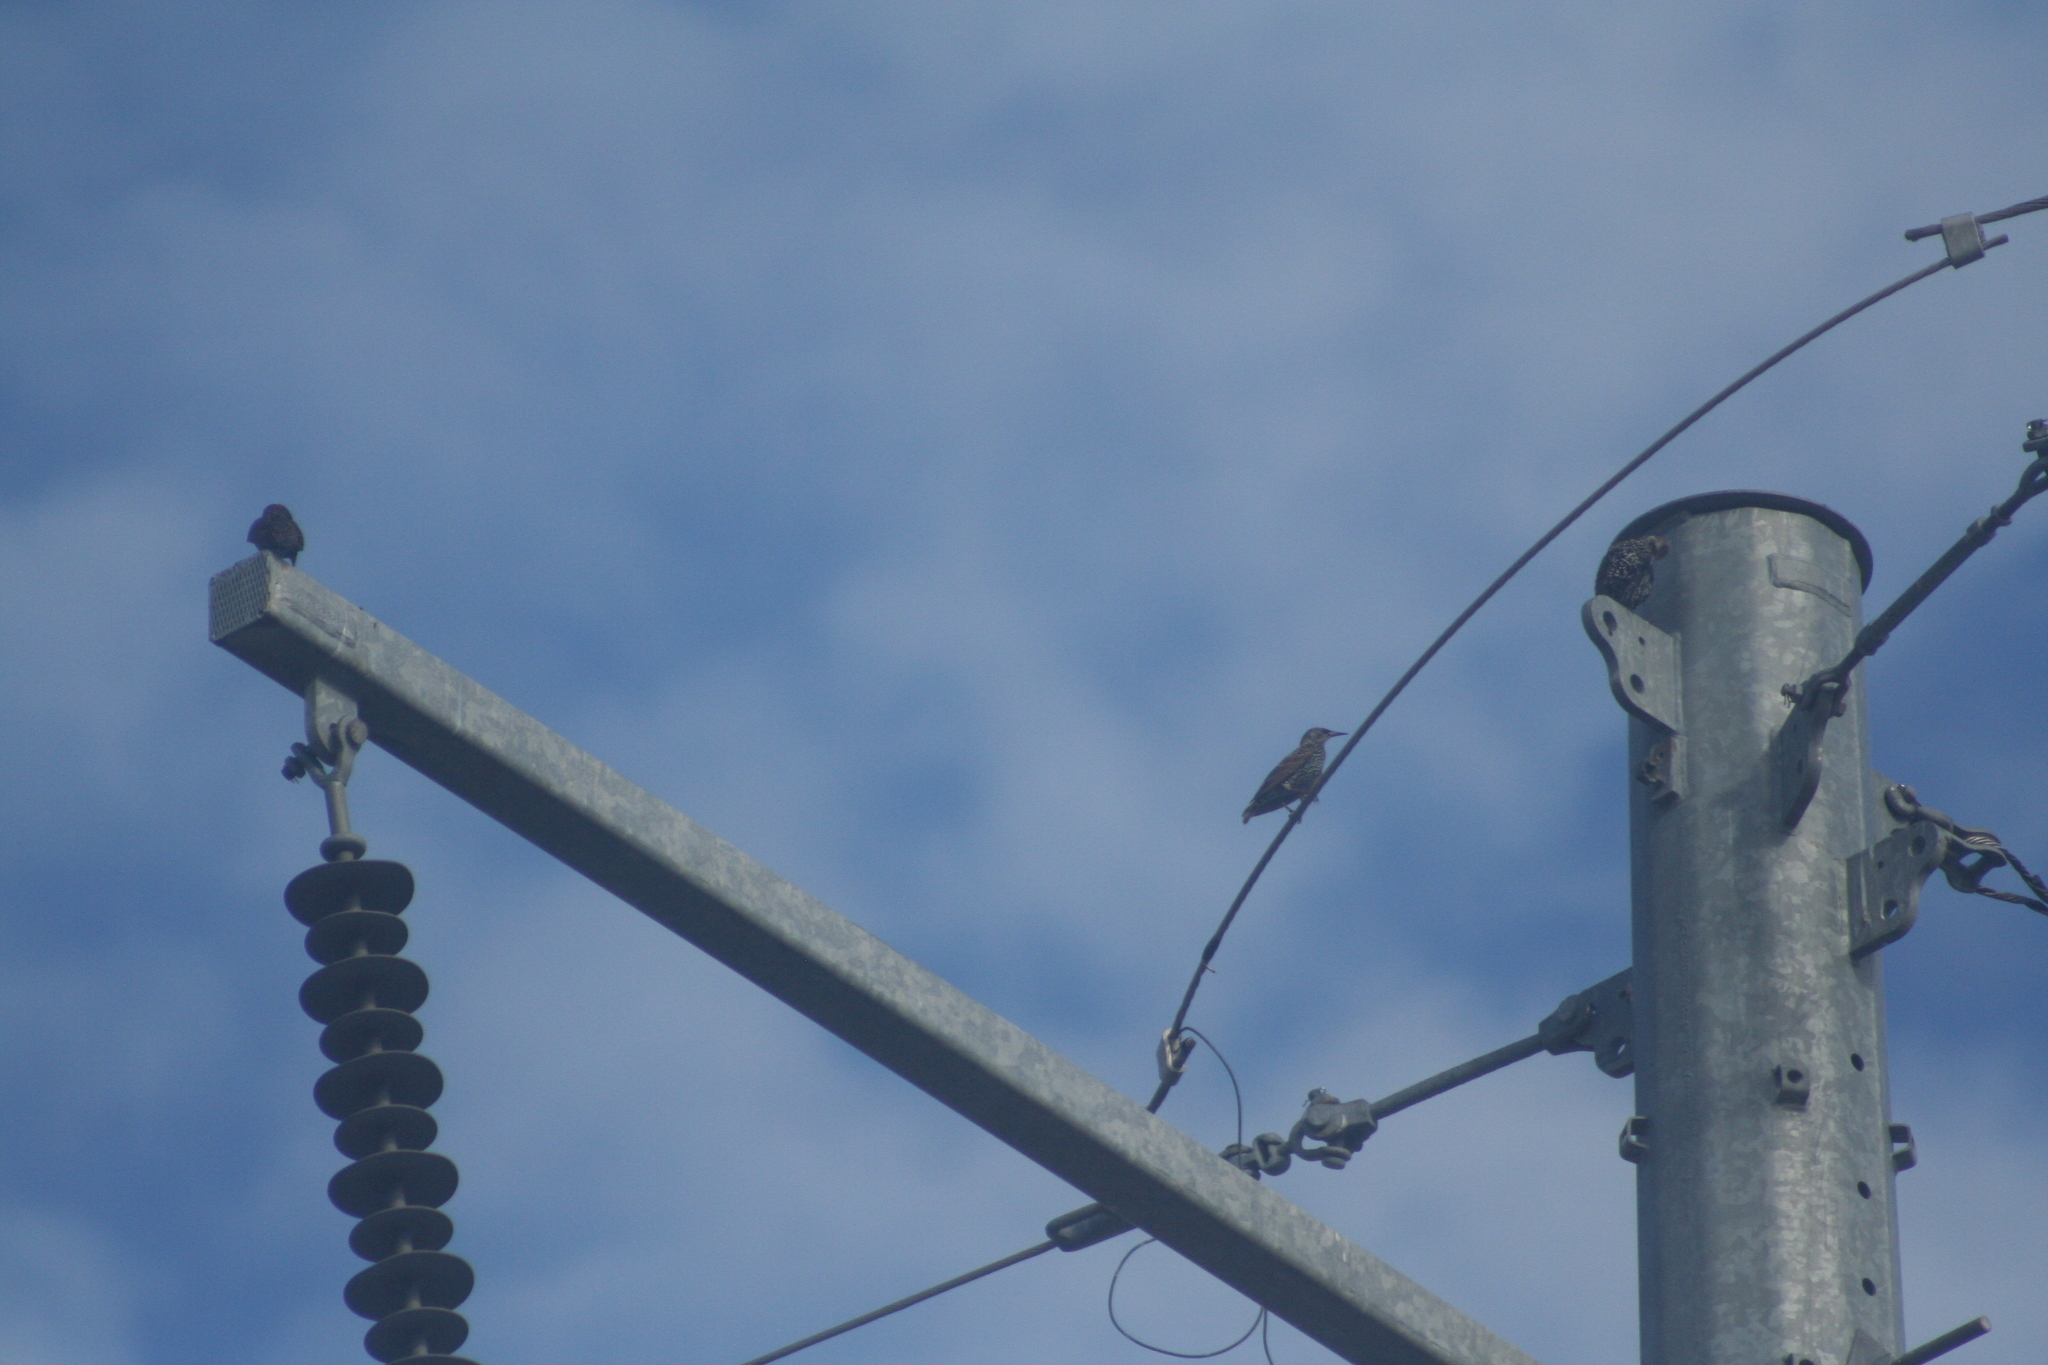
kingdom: Animalia
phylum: Chordata
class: Aves
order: Passeriformes
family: Sturnidae
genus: Sturnus
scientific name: Sturnus vulgaris
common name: Common starling
